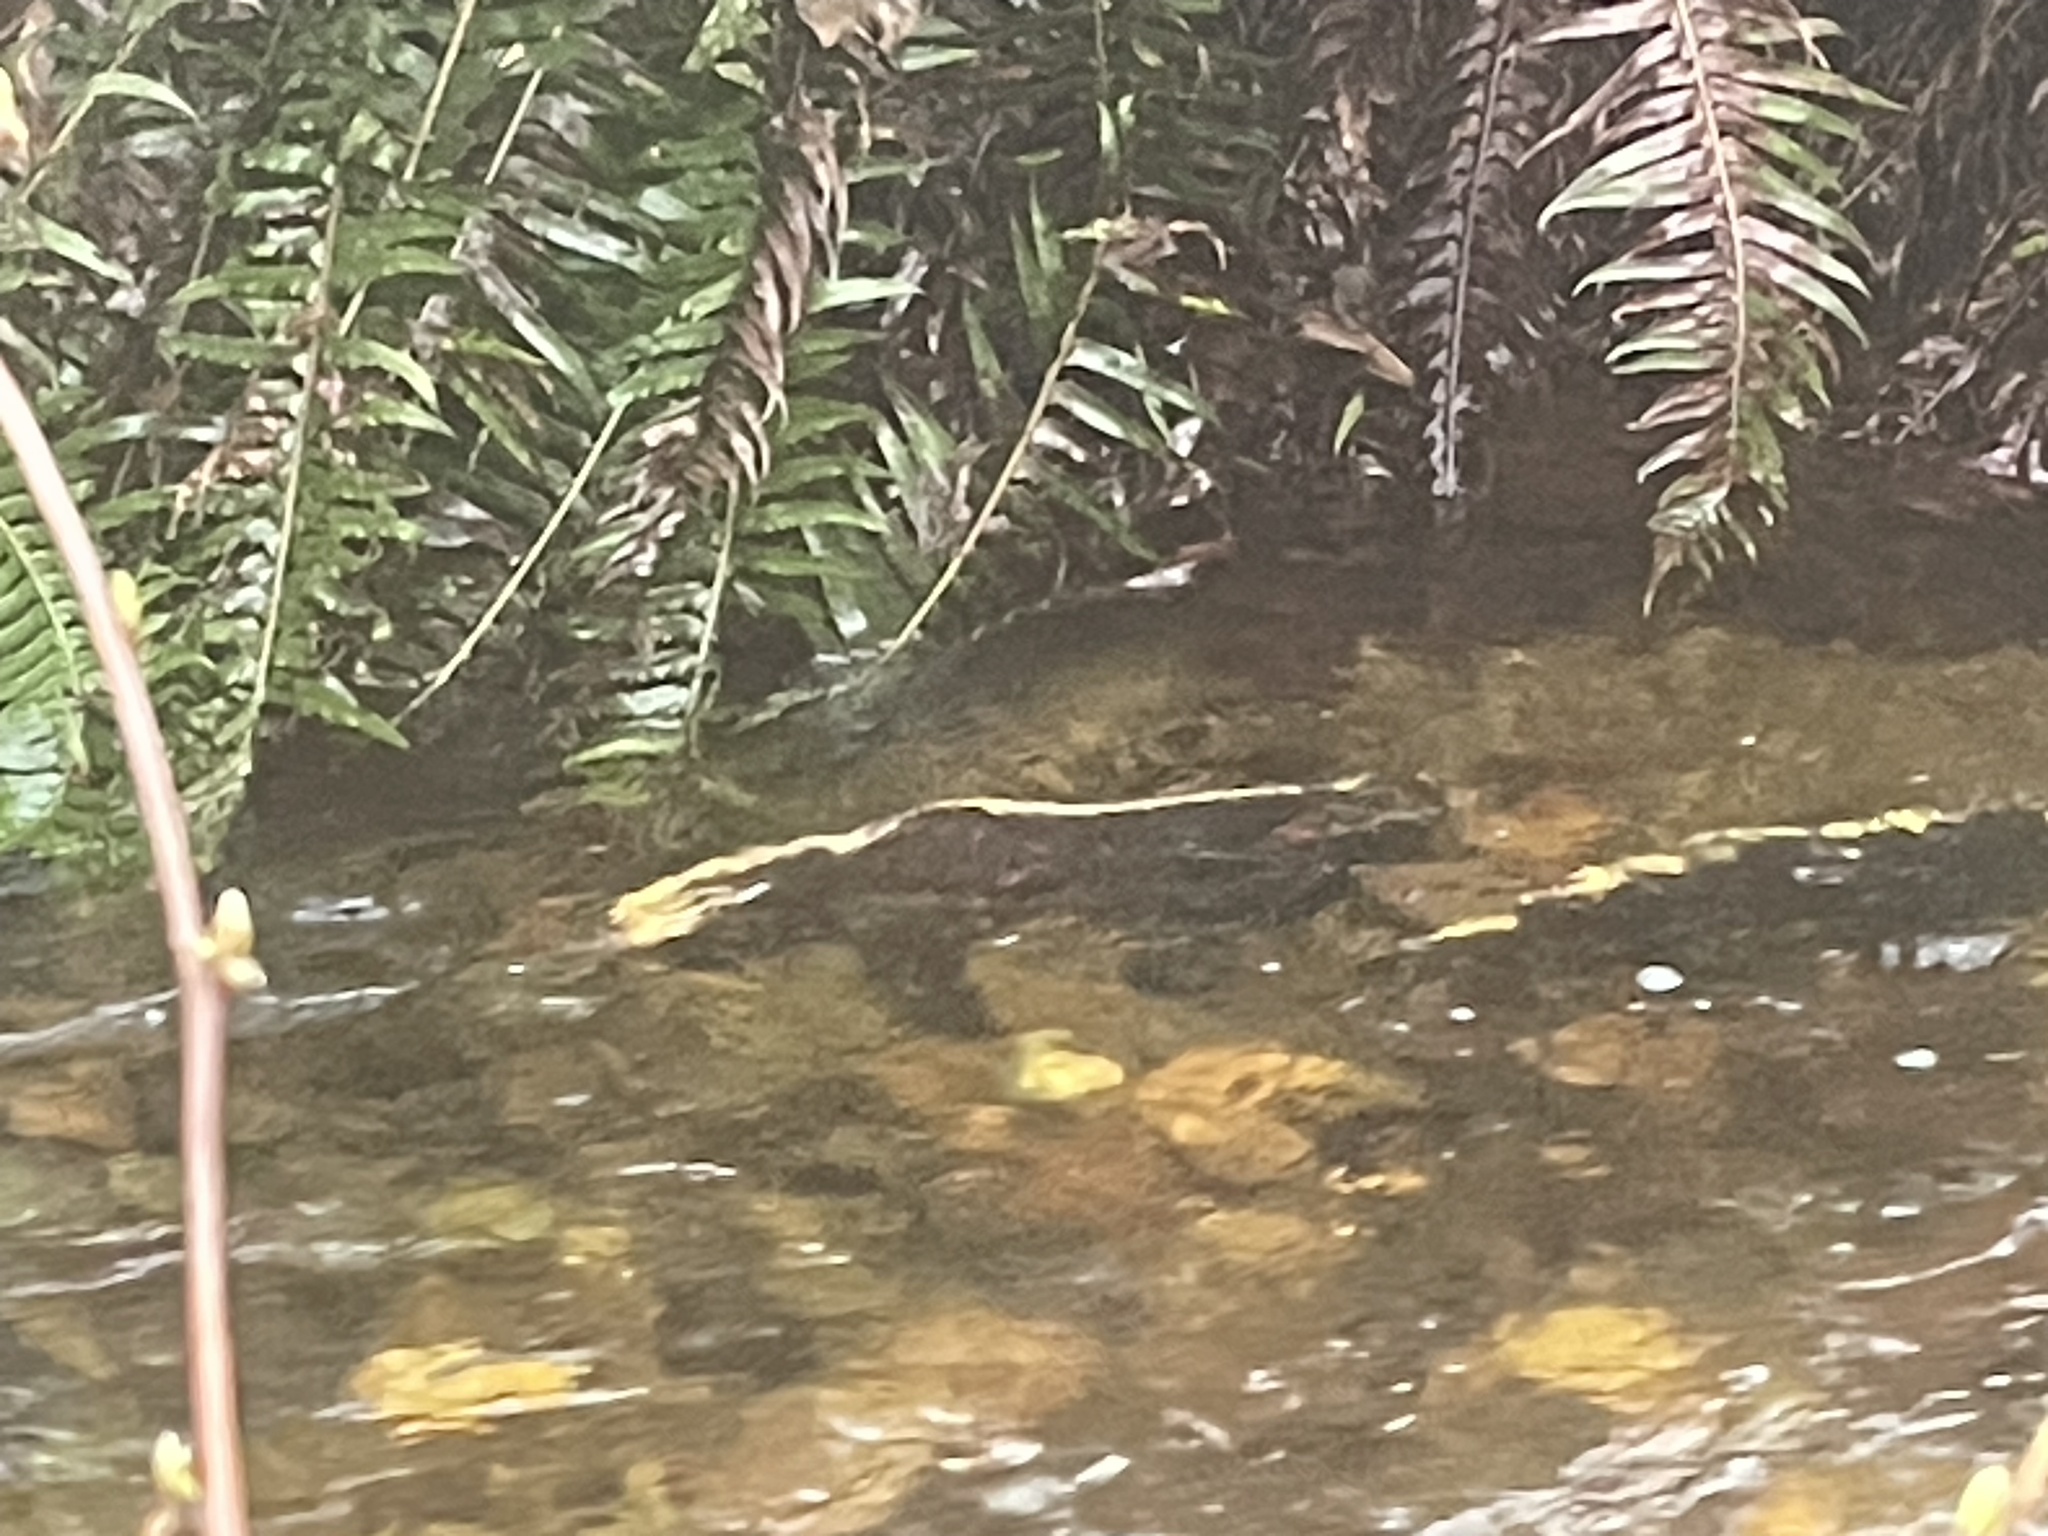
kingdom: Animalia
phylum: Chordata
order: Salmoniformes
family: Salmonidae
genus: Oncorhynchus
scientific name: Oncorhynchus kisutch
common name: Coho salmon
